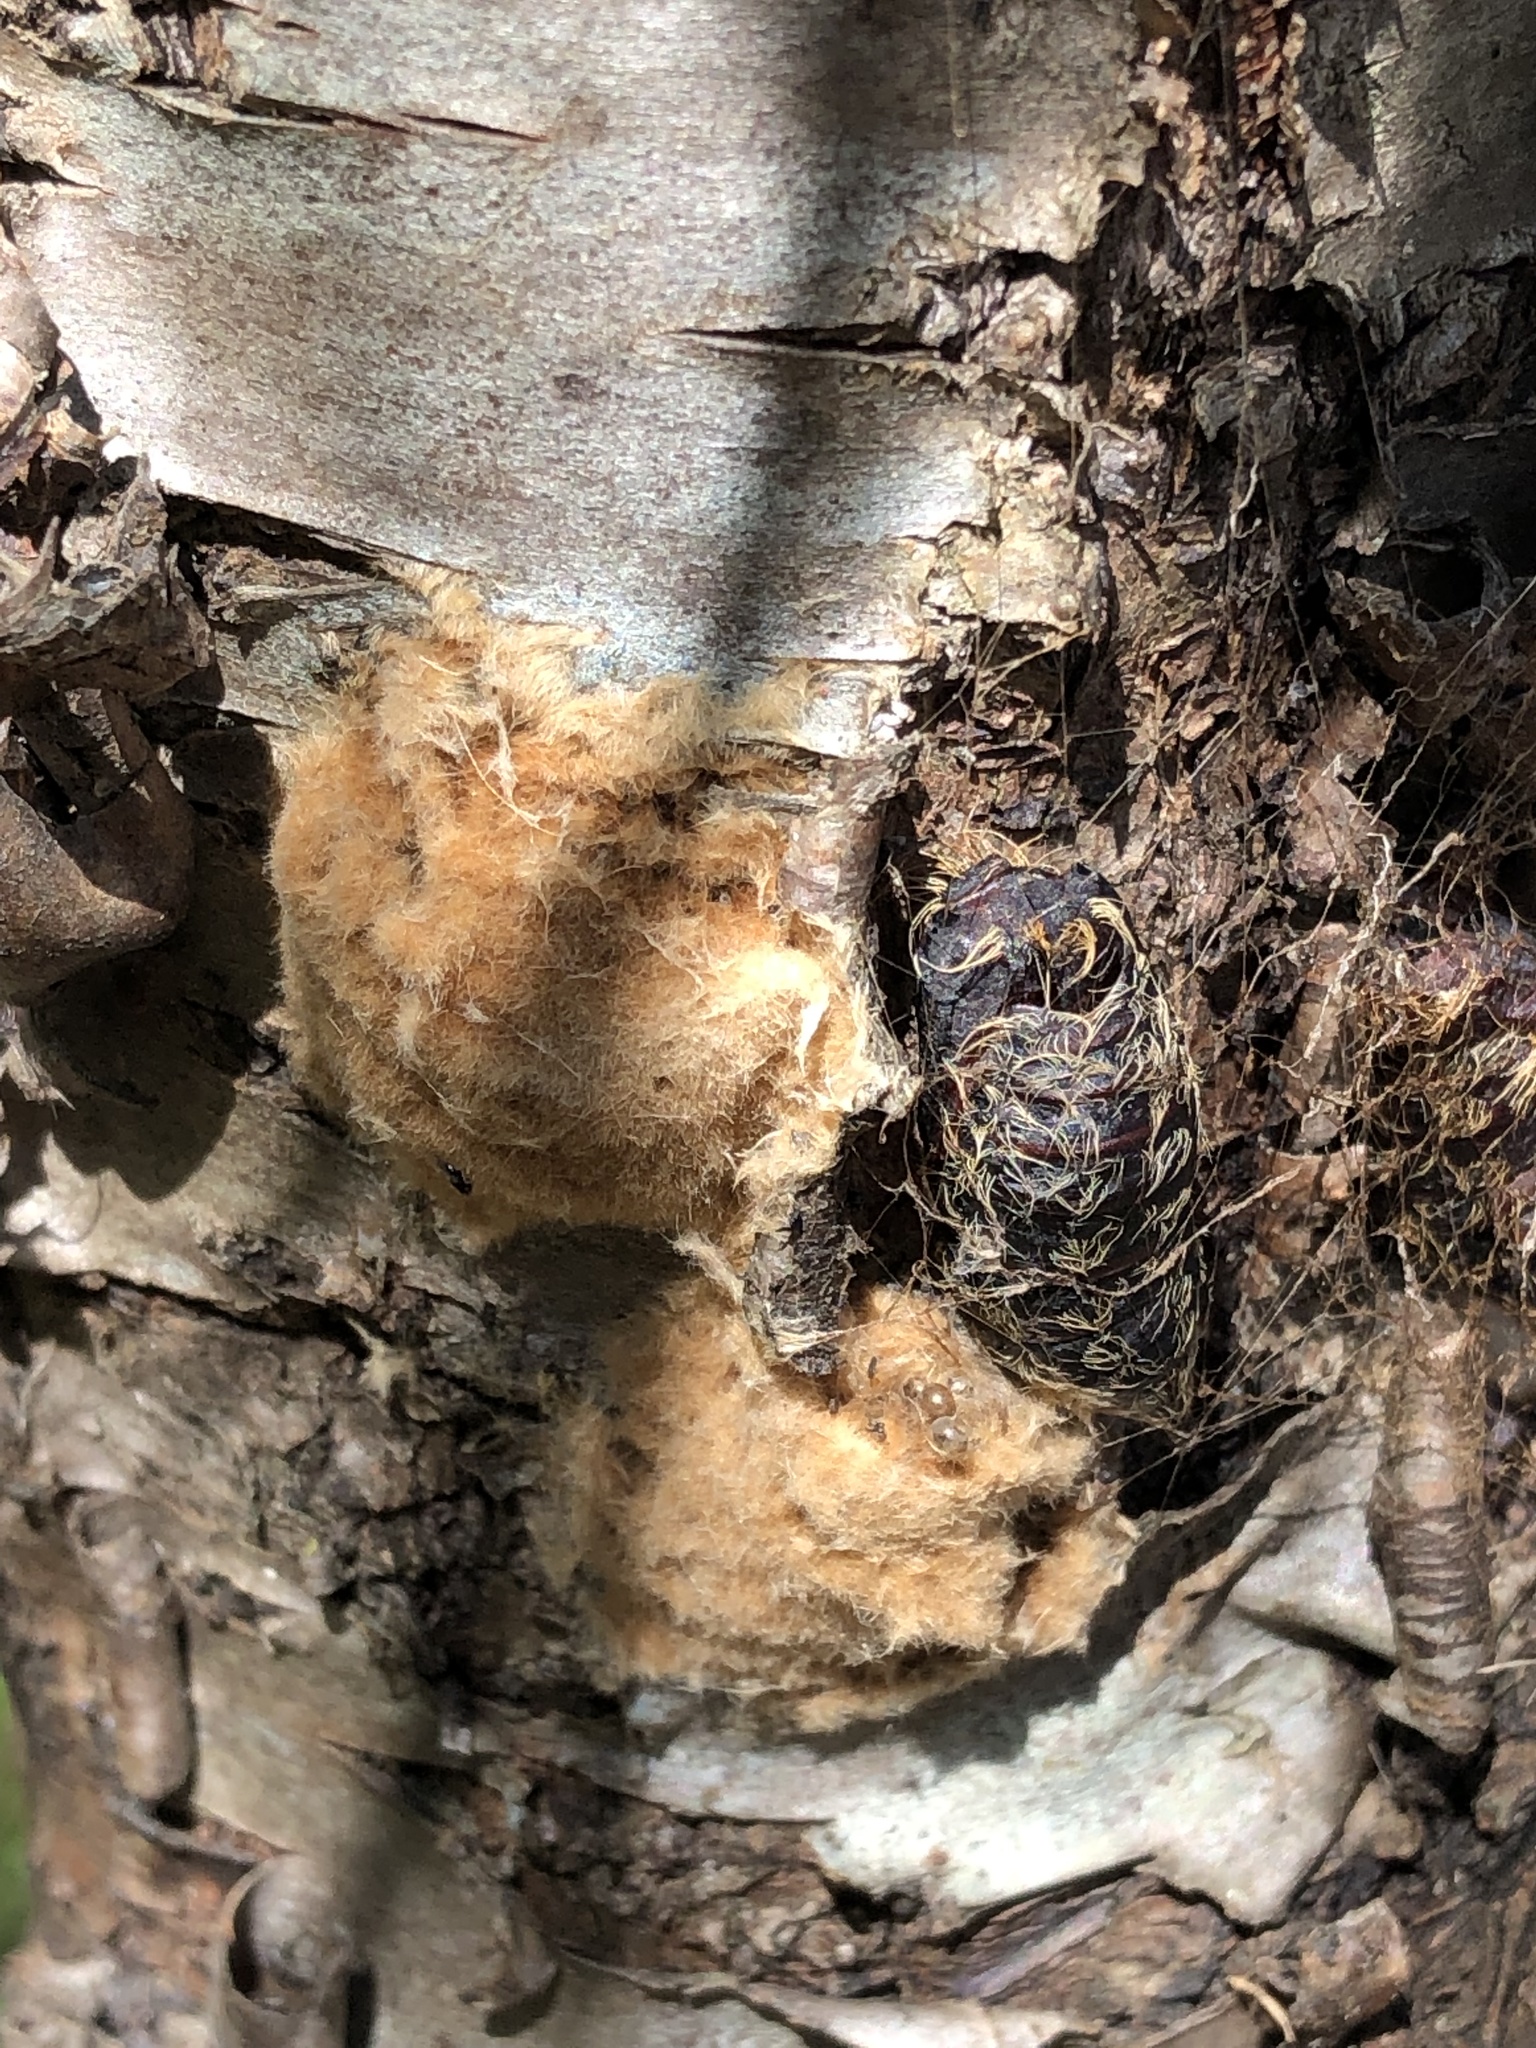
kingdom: Animalia
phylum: Arthropoda
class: Insecta
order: Lepidoptera
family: Erebidae
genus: Lymantria
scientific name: Lymantria dispar
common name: Gypsy moth
